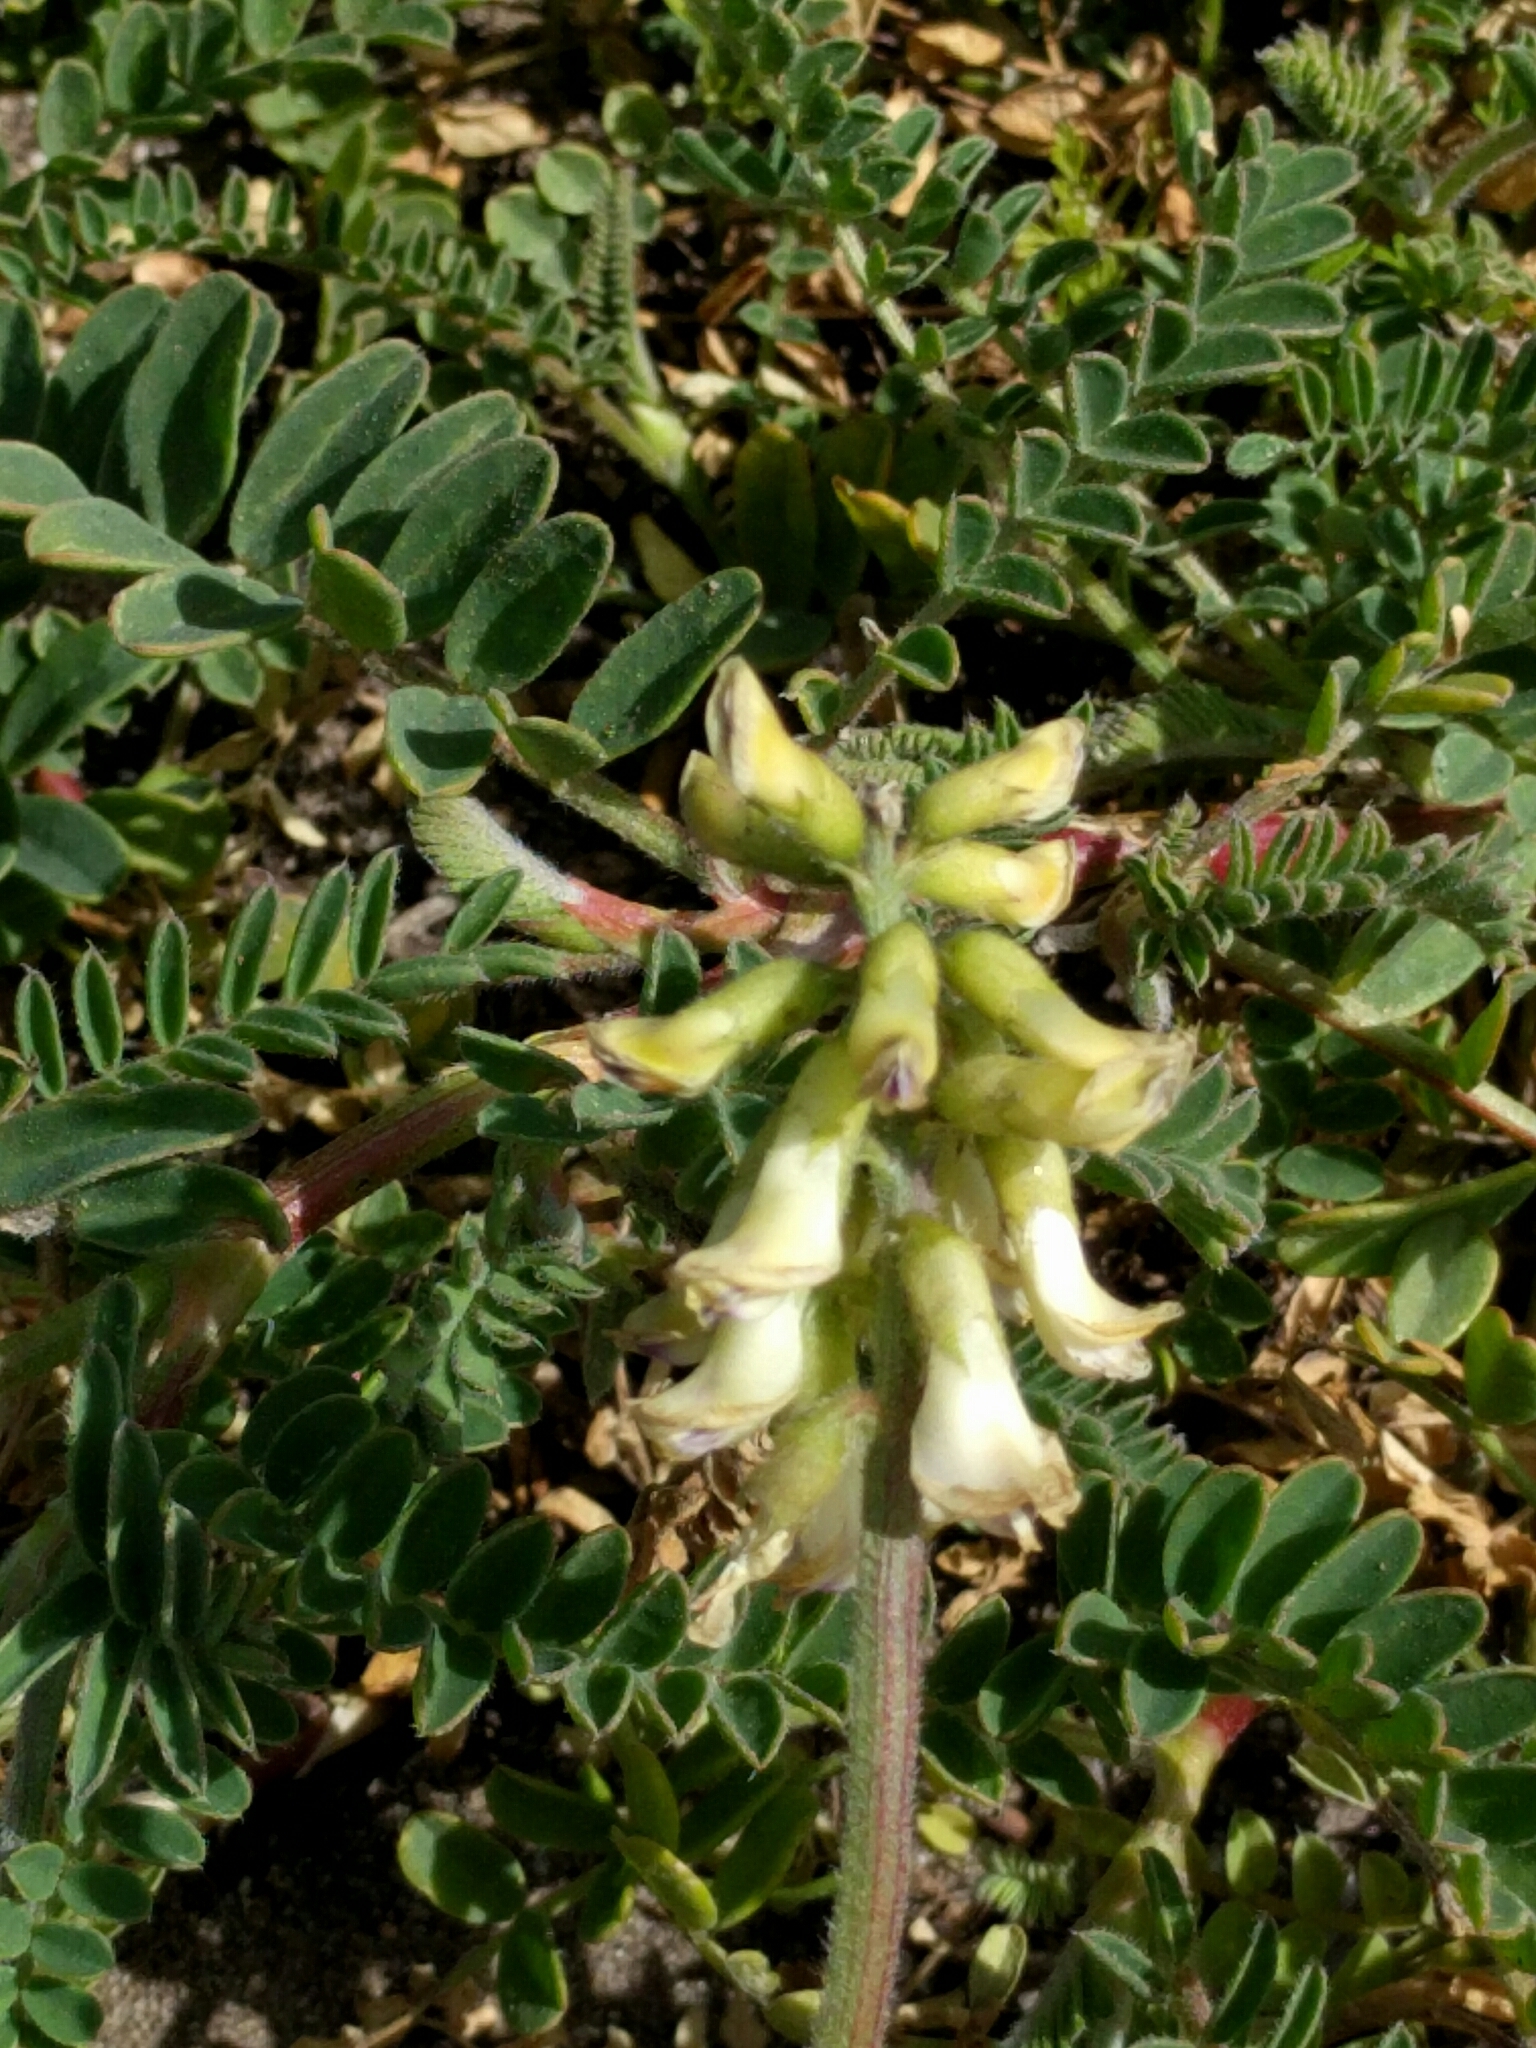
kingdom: Plantae
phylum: Tracheophyta
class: Magnoliopsida
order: Fabales
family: Fabaceae
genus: Astragalus
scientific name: Astragalus nuttallii
